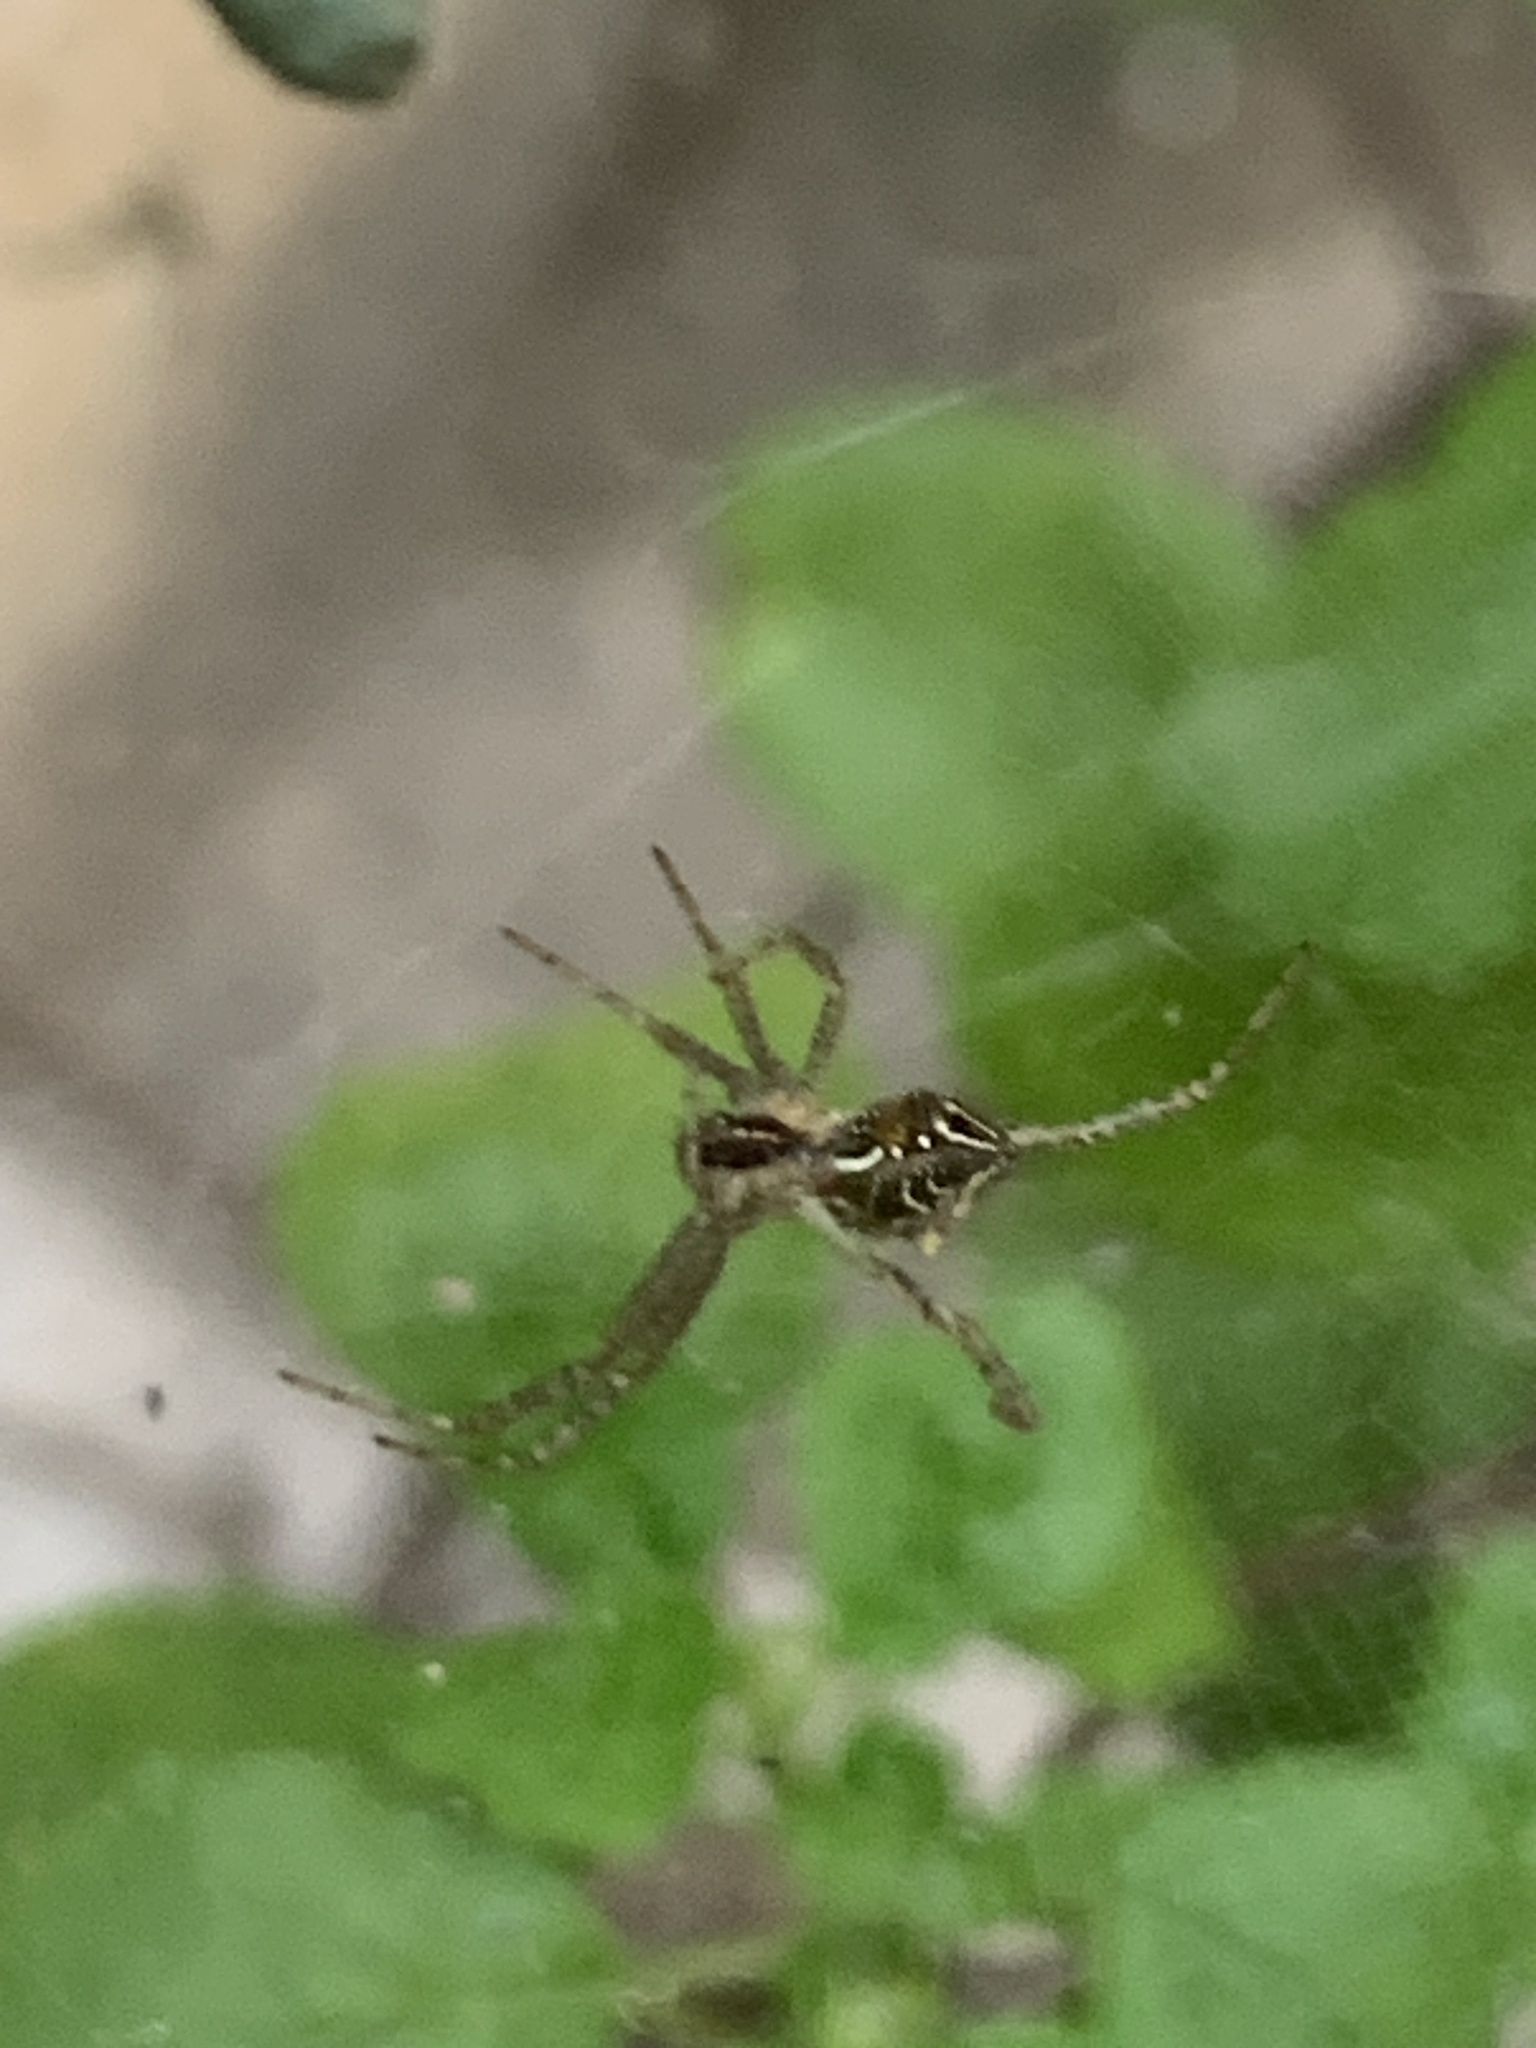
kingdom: Animalia
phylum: Arthropoda
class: Arachnida
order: Araneae
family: Araneidae
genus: Cyrtophora
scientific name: Cyrtophora cicatrosa
